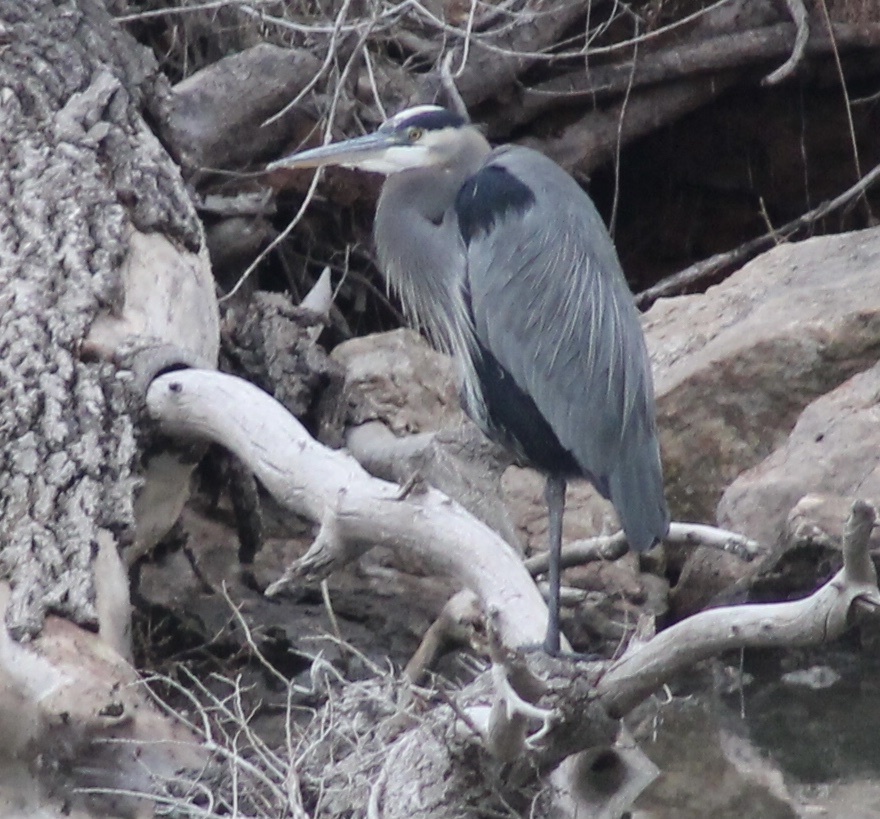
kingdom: Animalia
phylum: Chordata
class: Aves
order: Pelecaniformes
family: Ardeidae
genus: Ardea
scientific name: Ardea herodias
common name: Great blue heron
